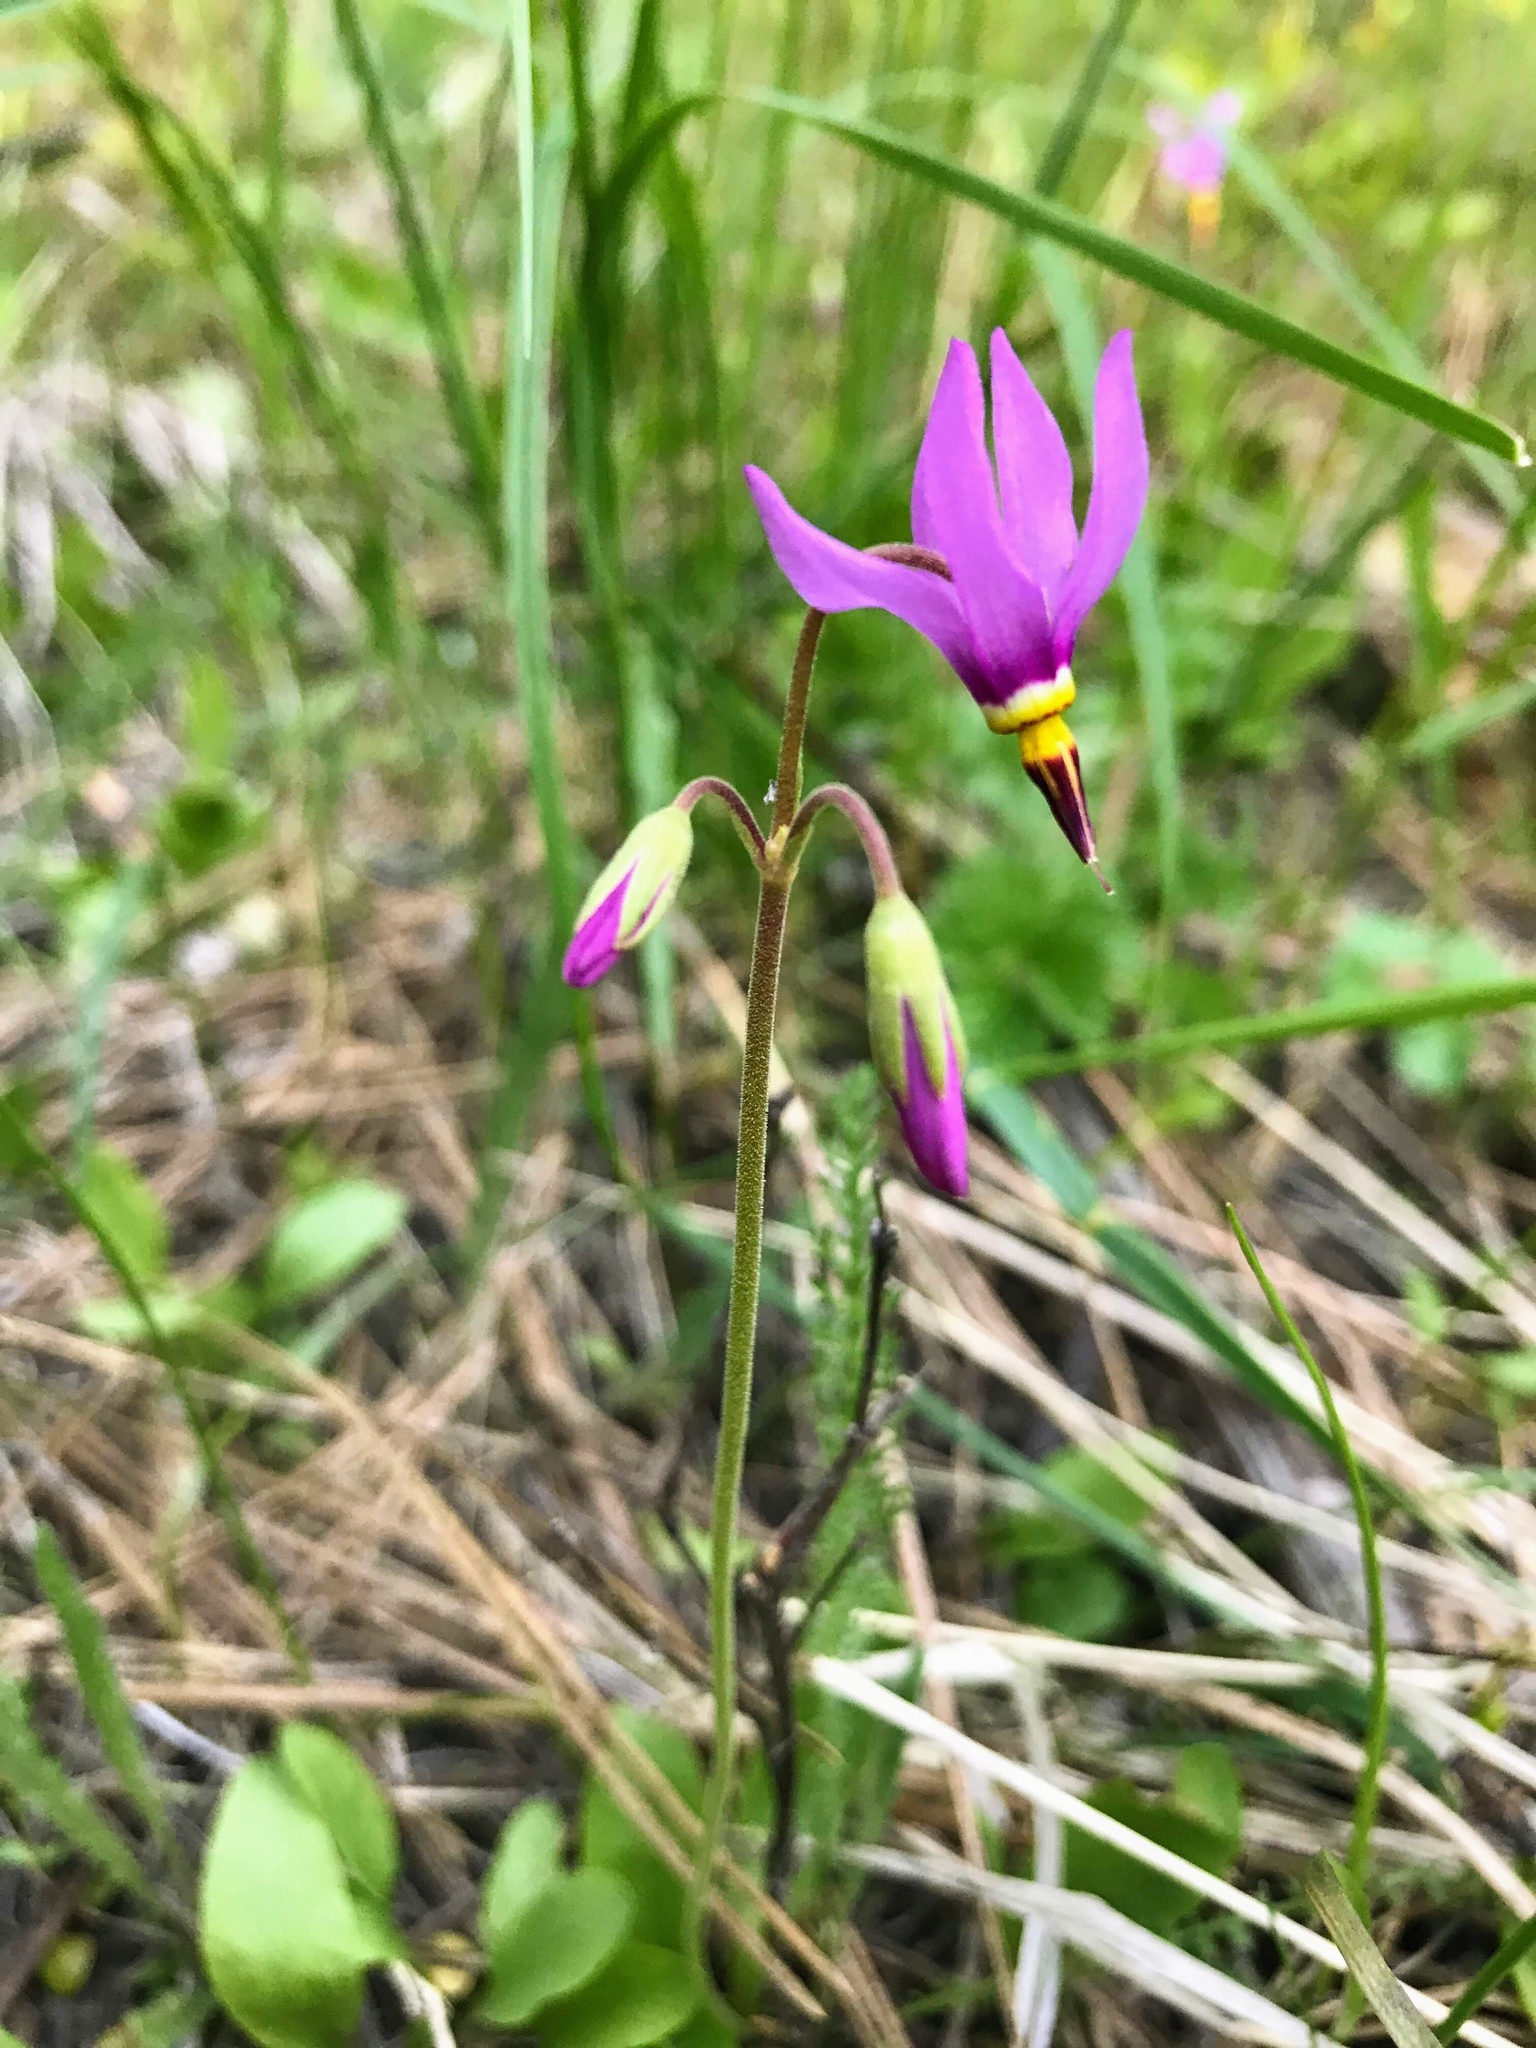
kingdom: Plantae
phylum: Tracheophyta
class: Magnoliopsida
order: Ericales
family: Primulaceae
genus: Dodecatheon
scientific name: Dodecatheon pulchellum
